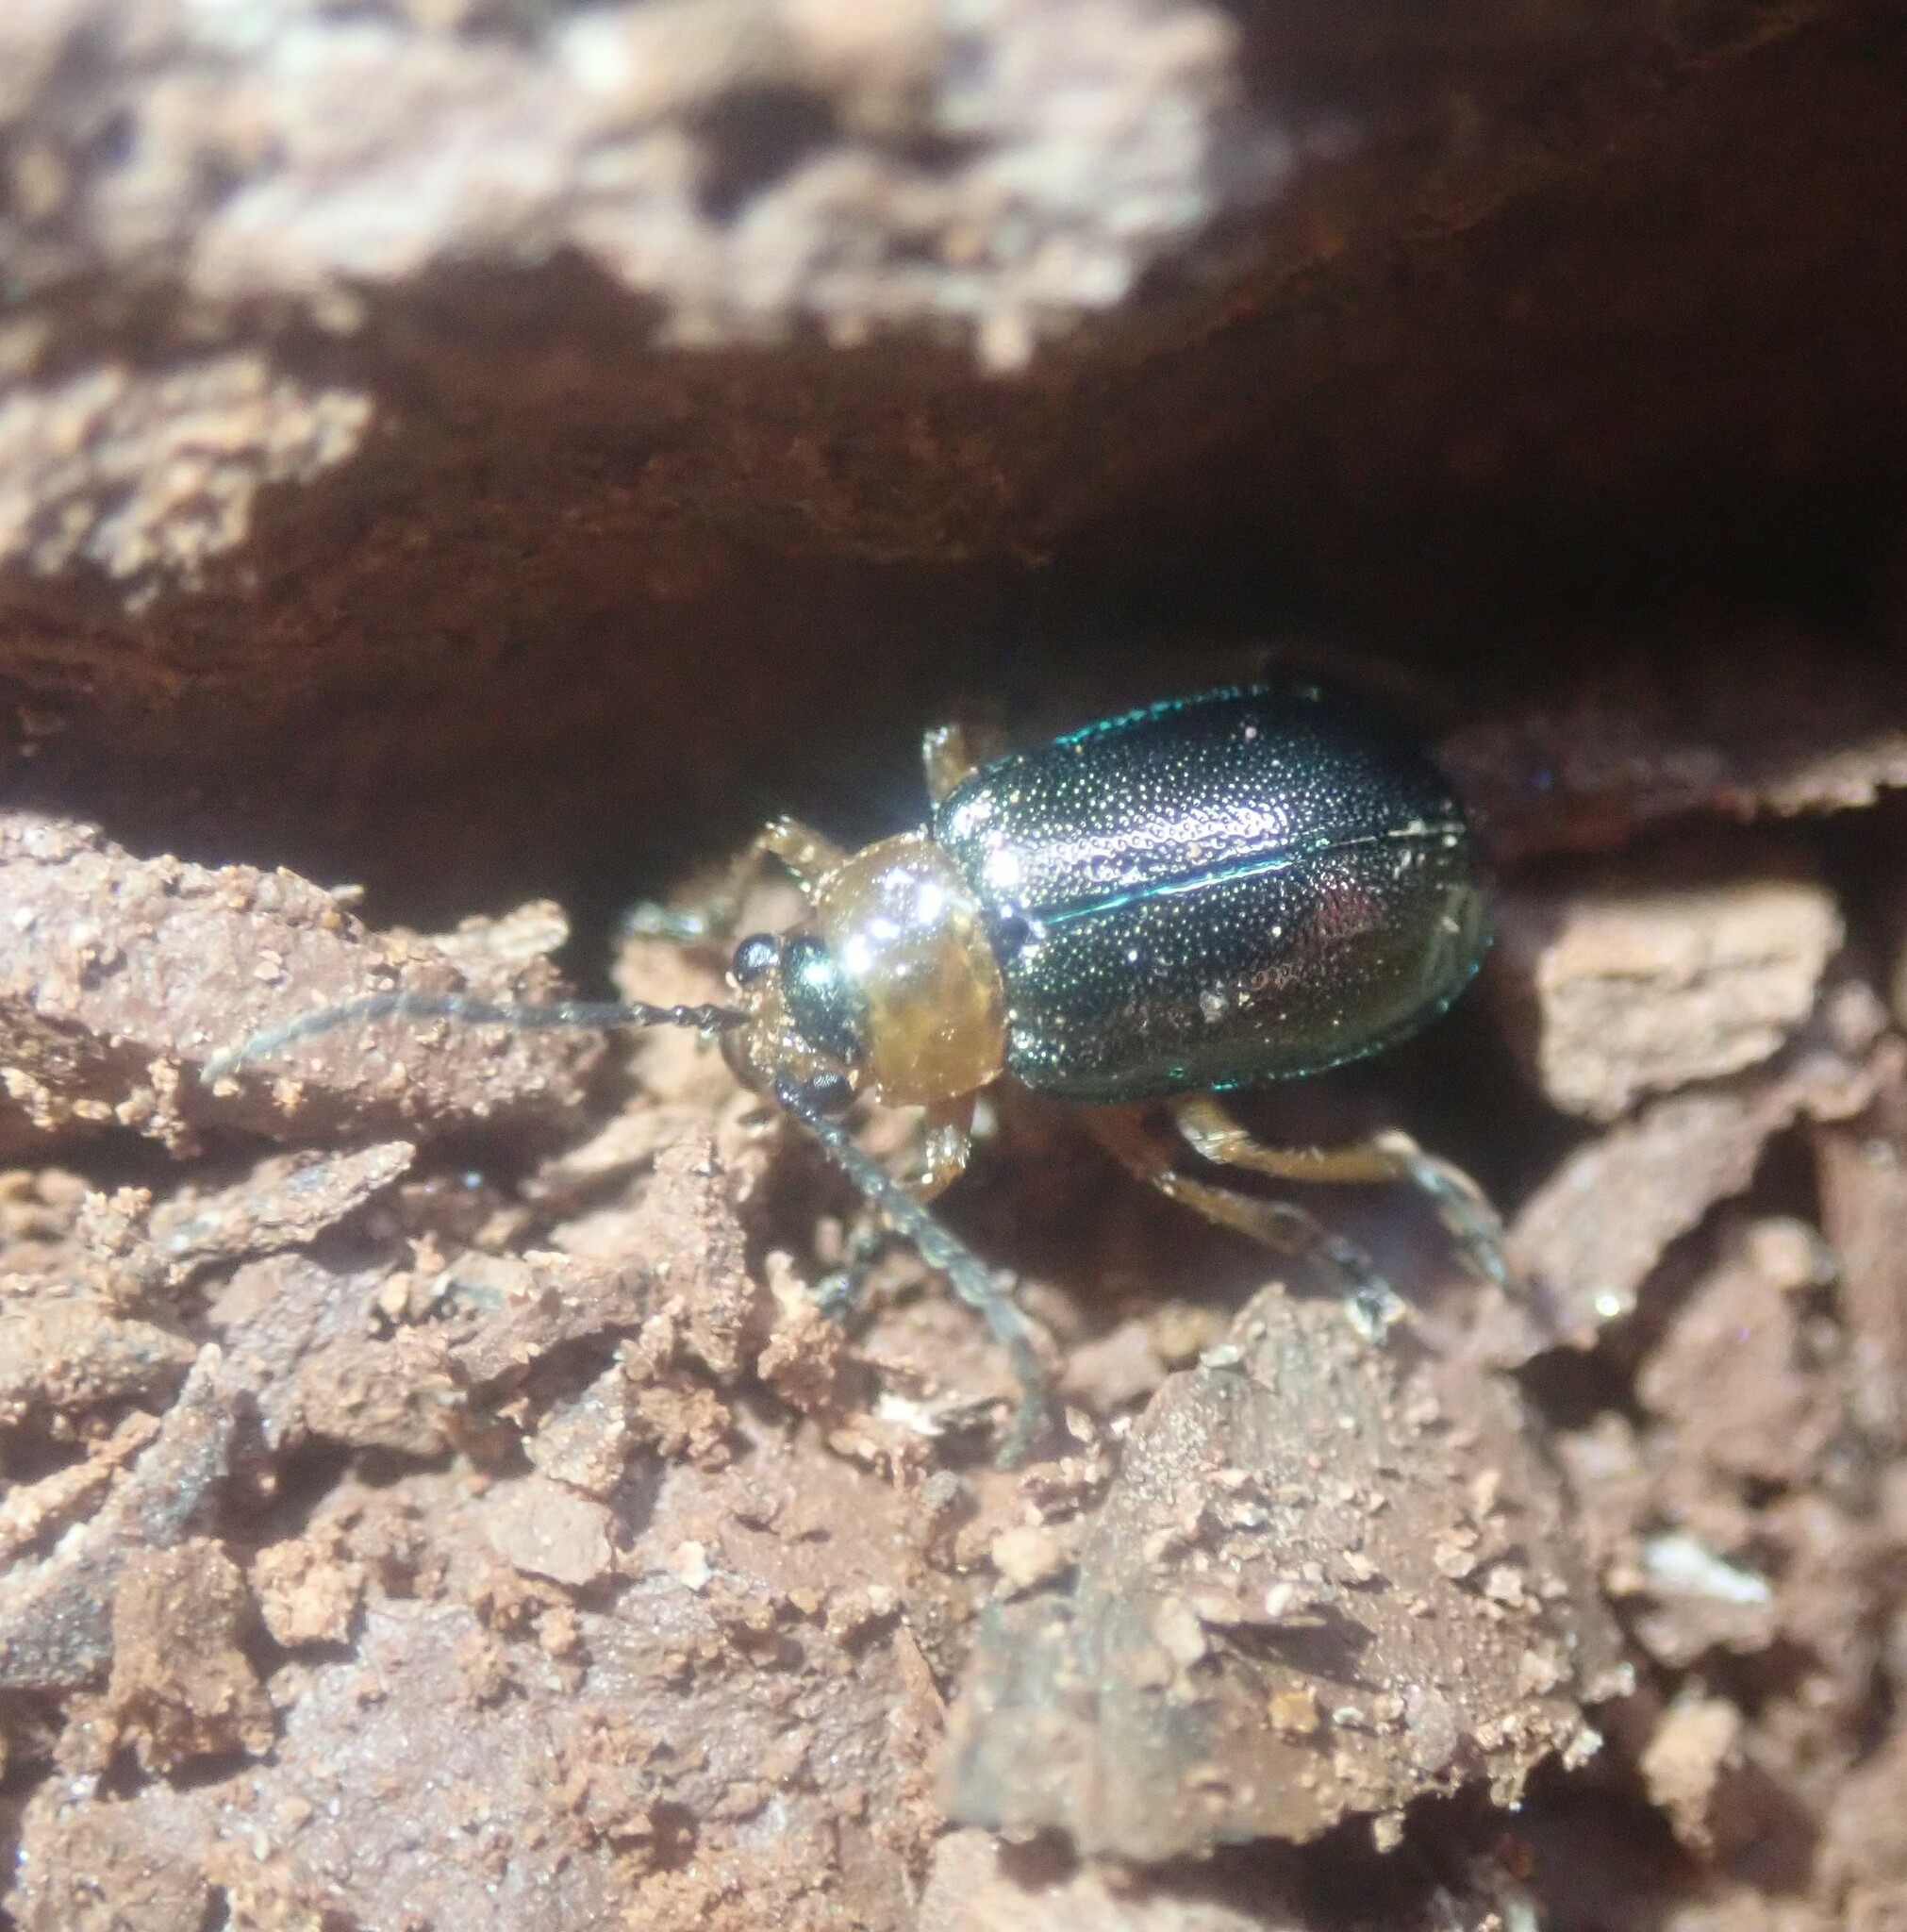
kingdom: Animalia
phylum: Arthropoda
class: Insecta
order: Coleoptera
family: Chrysomelidae
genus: Sermylassa
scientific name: Sermylassa halensis
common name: Leaf beetle
